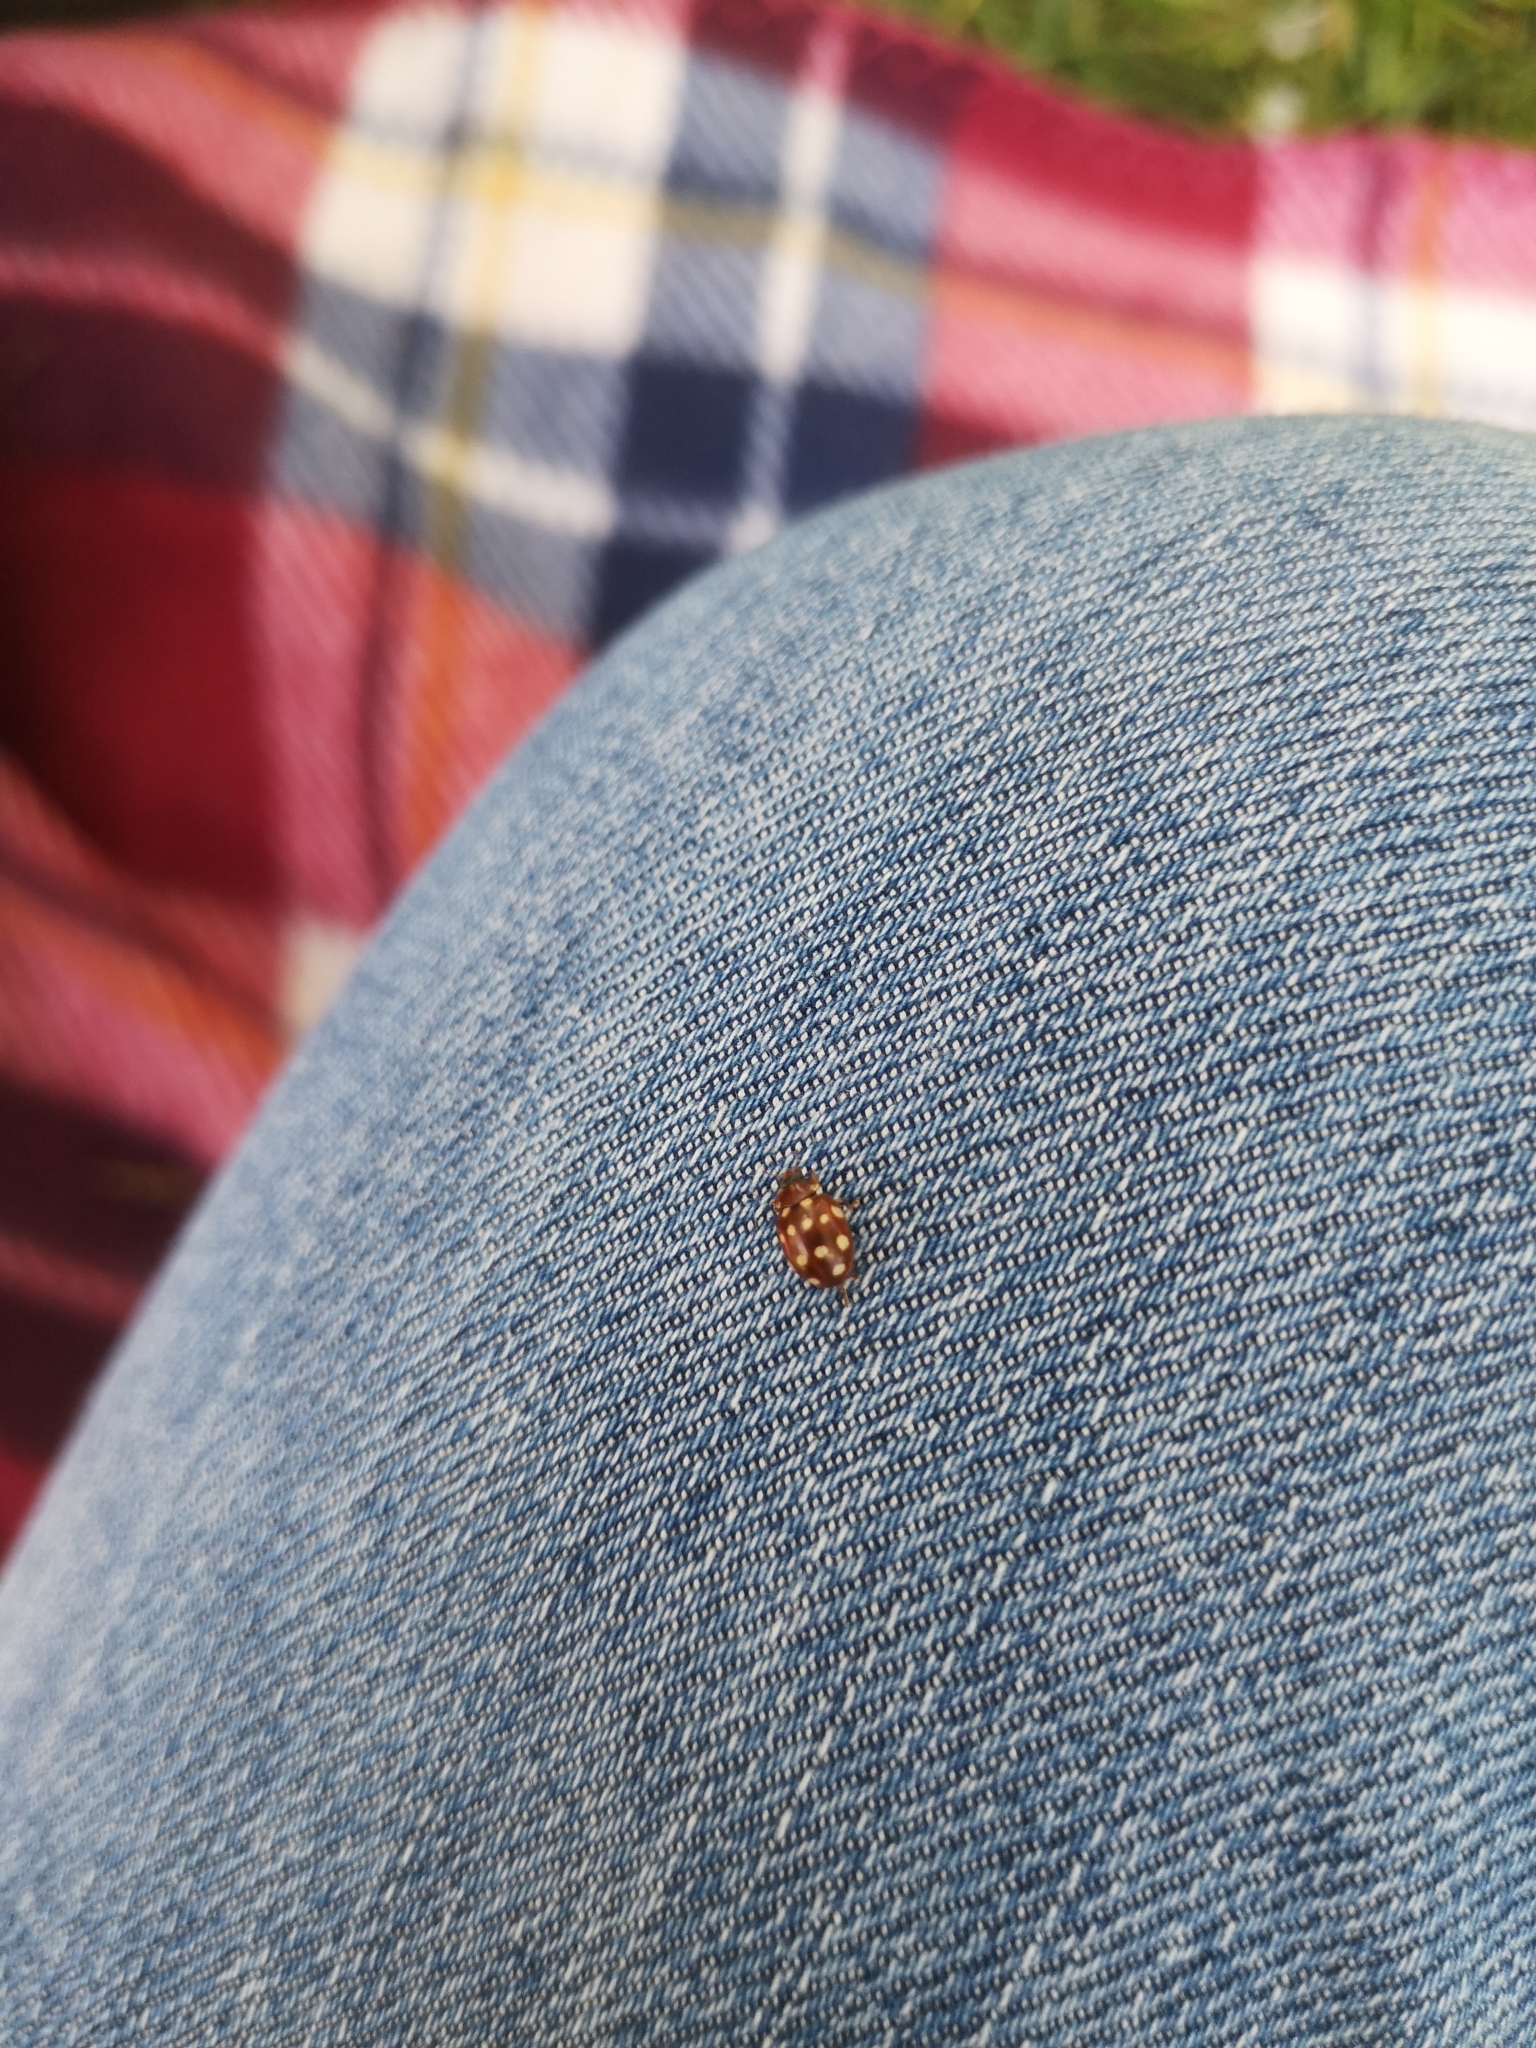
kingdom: Animalia
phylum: Arthropoda
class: Insecta
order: Coleoptera
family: Coccinellidae
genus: Calvia
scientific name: Calvia quatuordecimguttata
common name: Cream-spot ladybird
